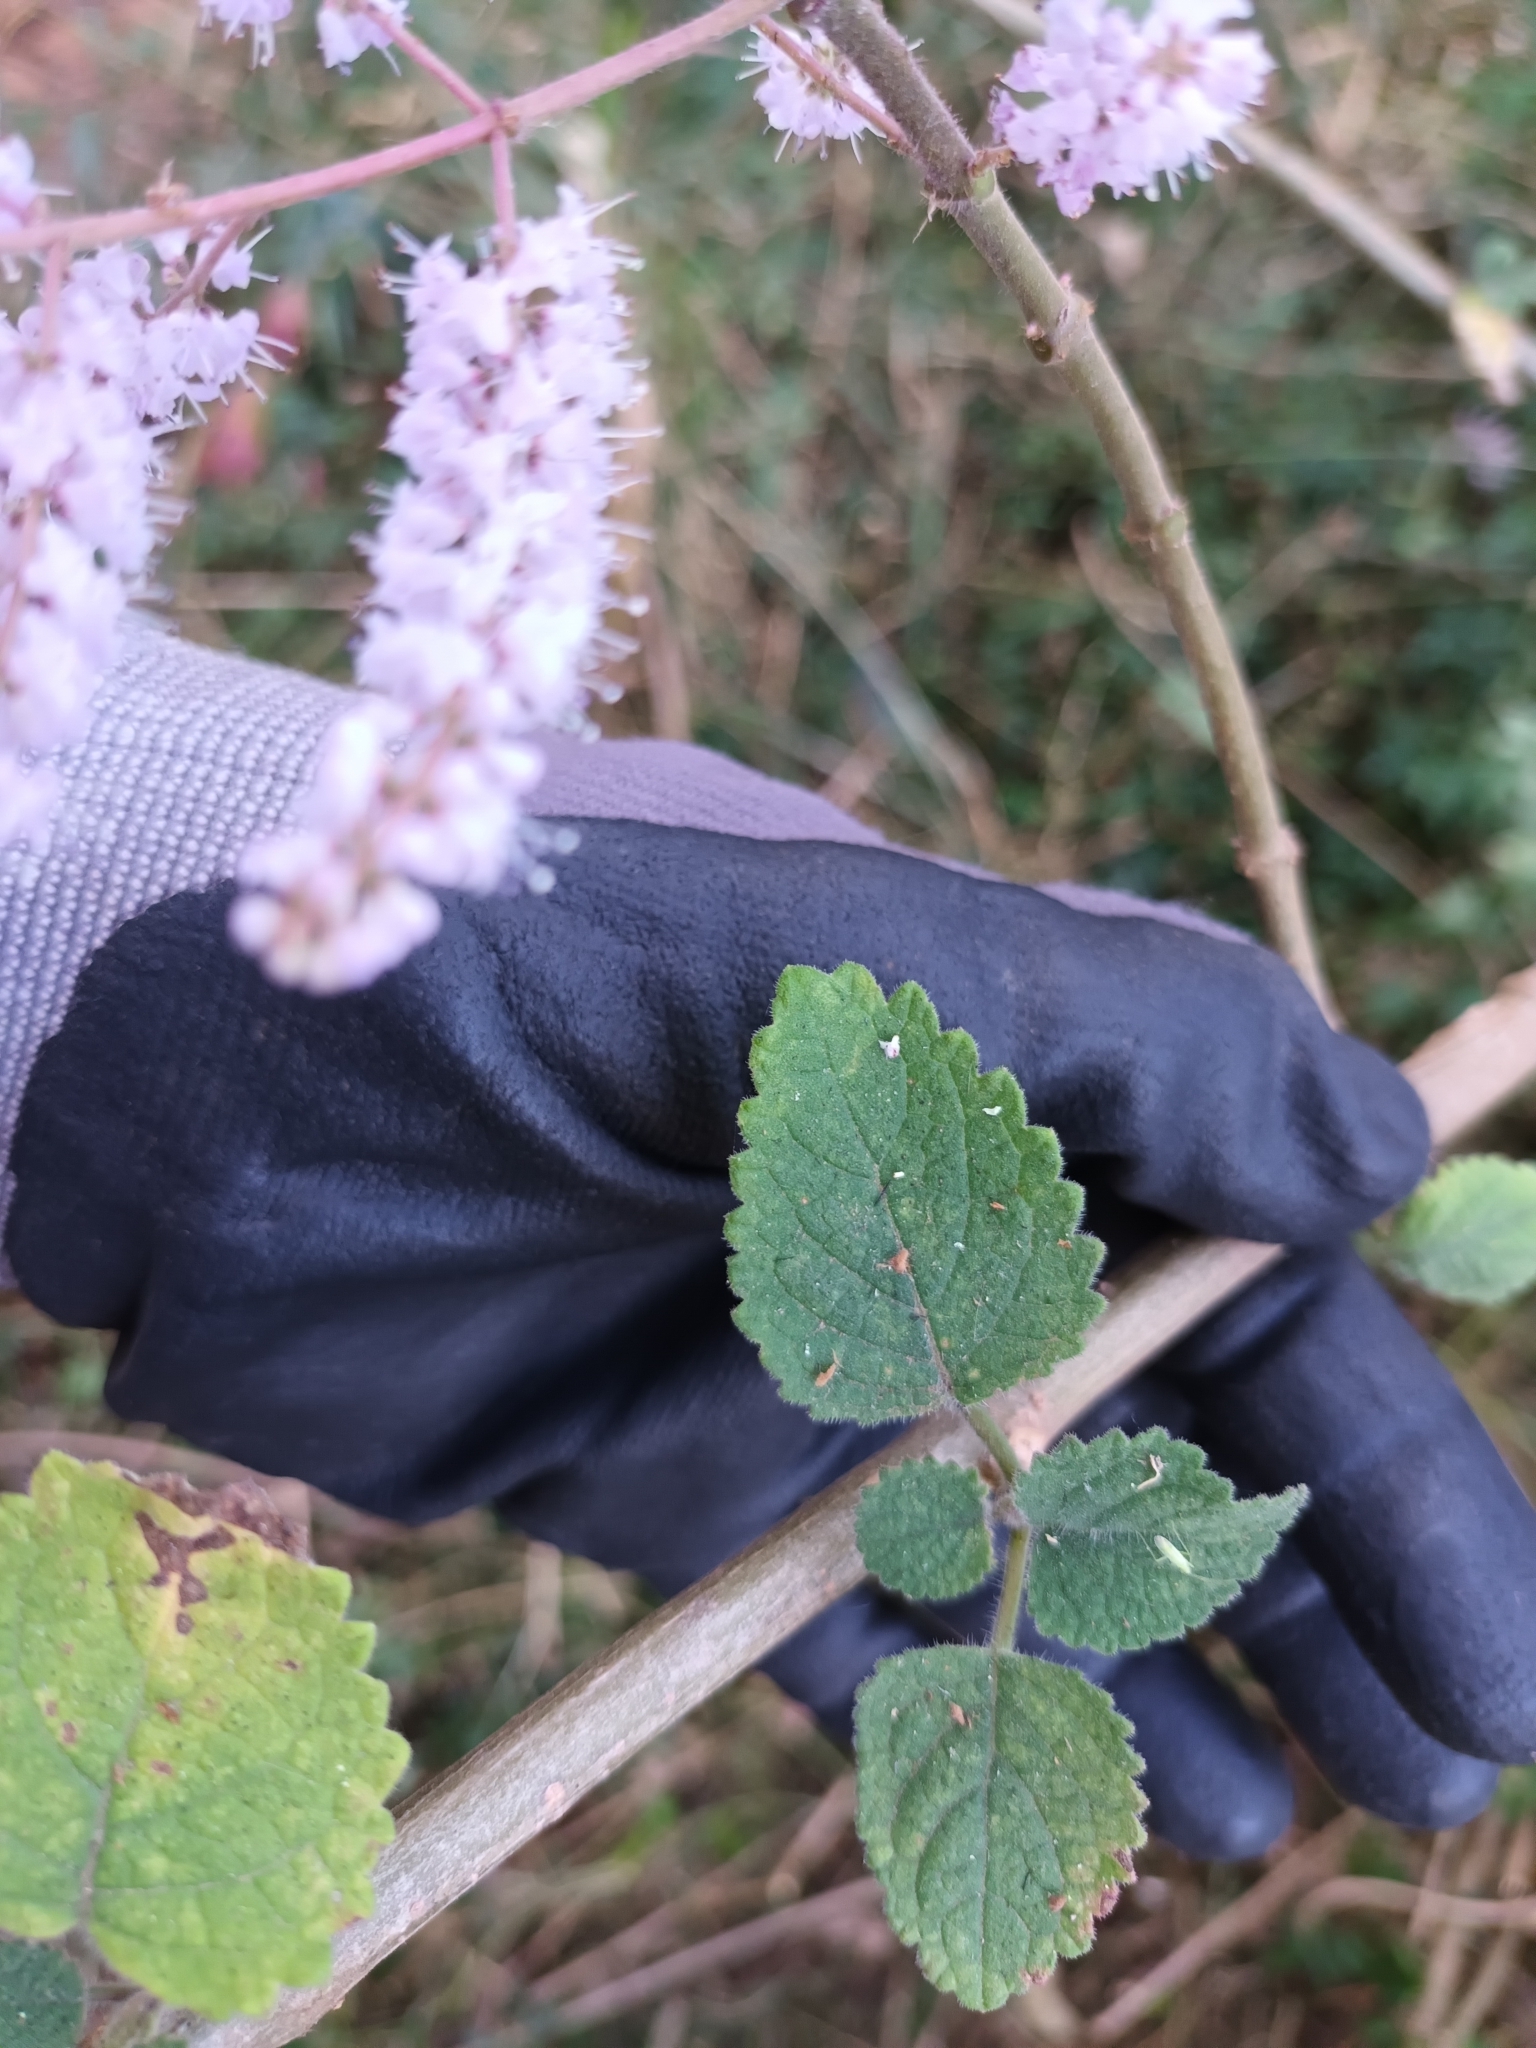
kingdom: Plantae
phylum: Tracheophyta
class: Magnoliopsida
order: Lamiales
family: Lamiaceae
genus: Tetradenia
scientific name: Tetradenia riparia
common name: Gingerbush
